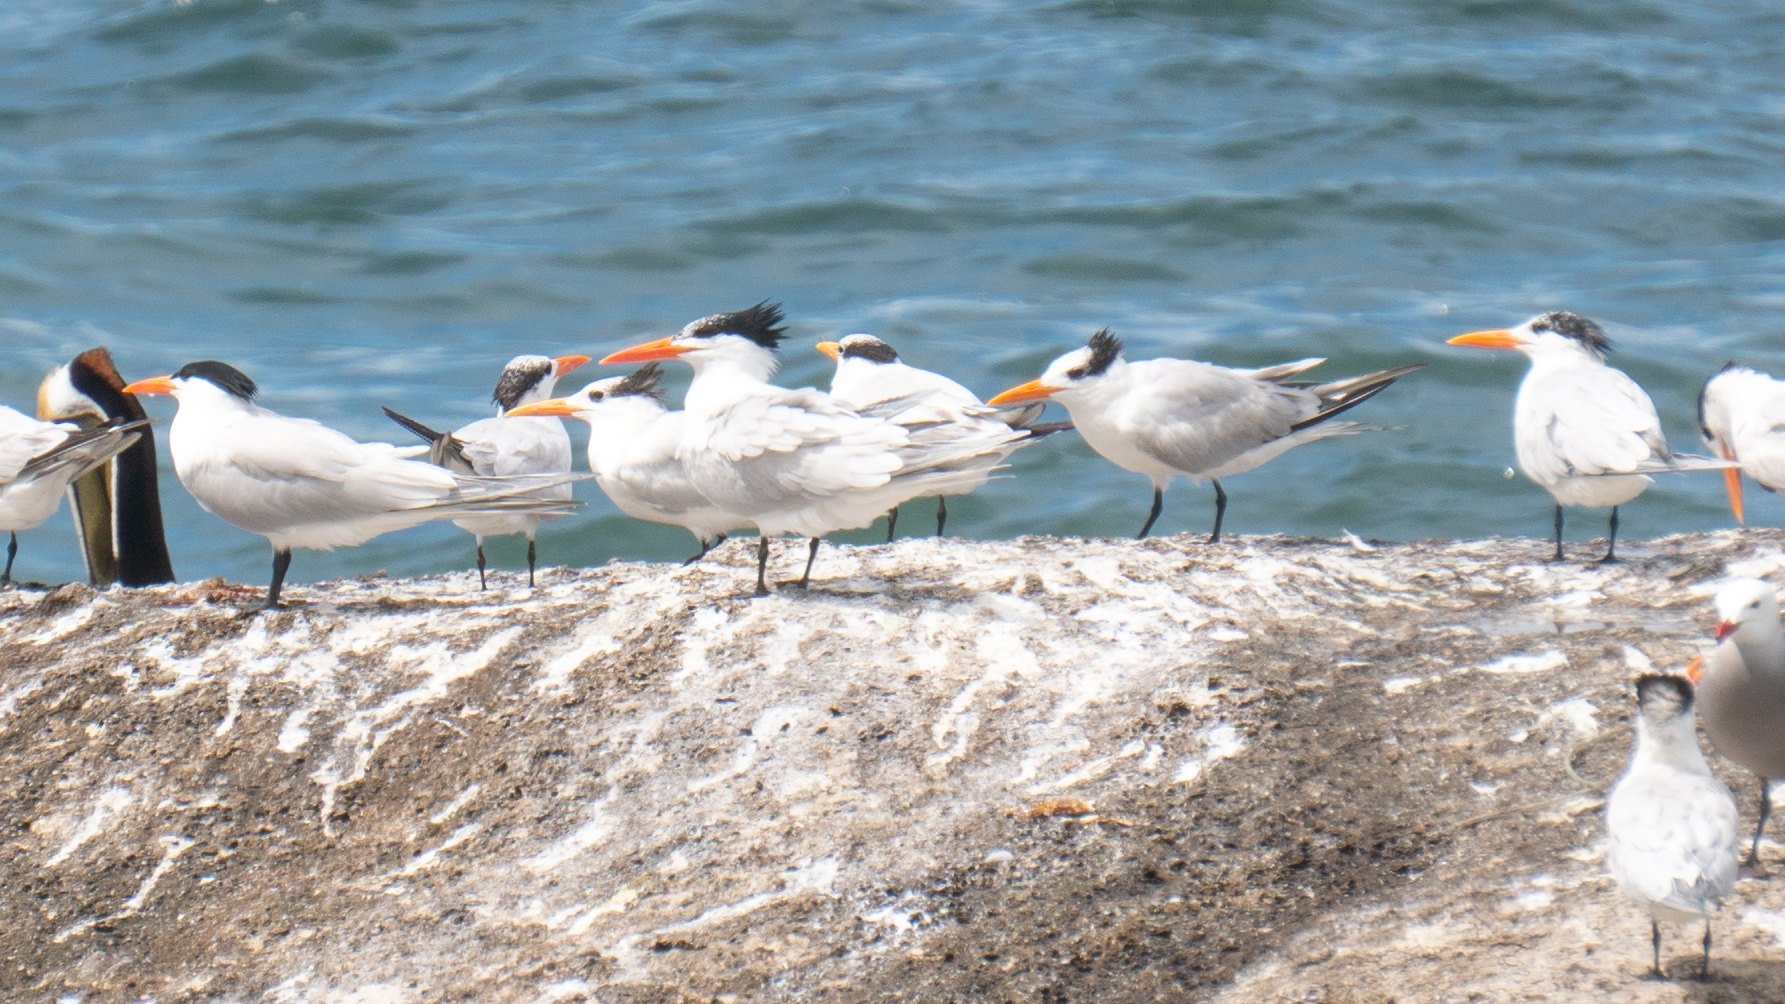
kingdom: Animalia
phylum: Chordata
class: Aves
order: Charadriiformes
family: Laridae
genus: Hydroprogne
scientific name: Hydroprogne caspia
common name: Caspian tern
